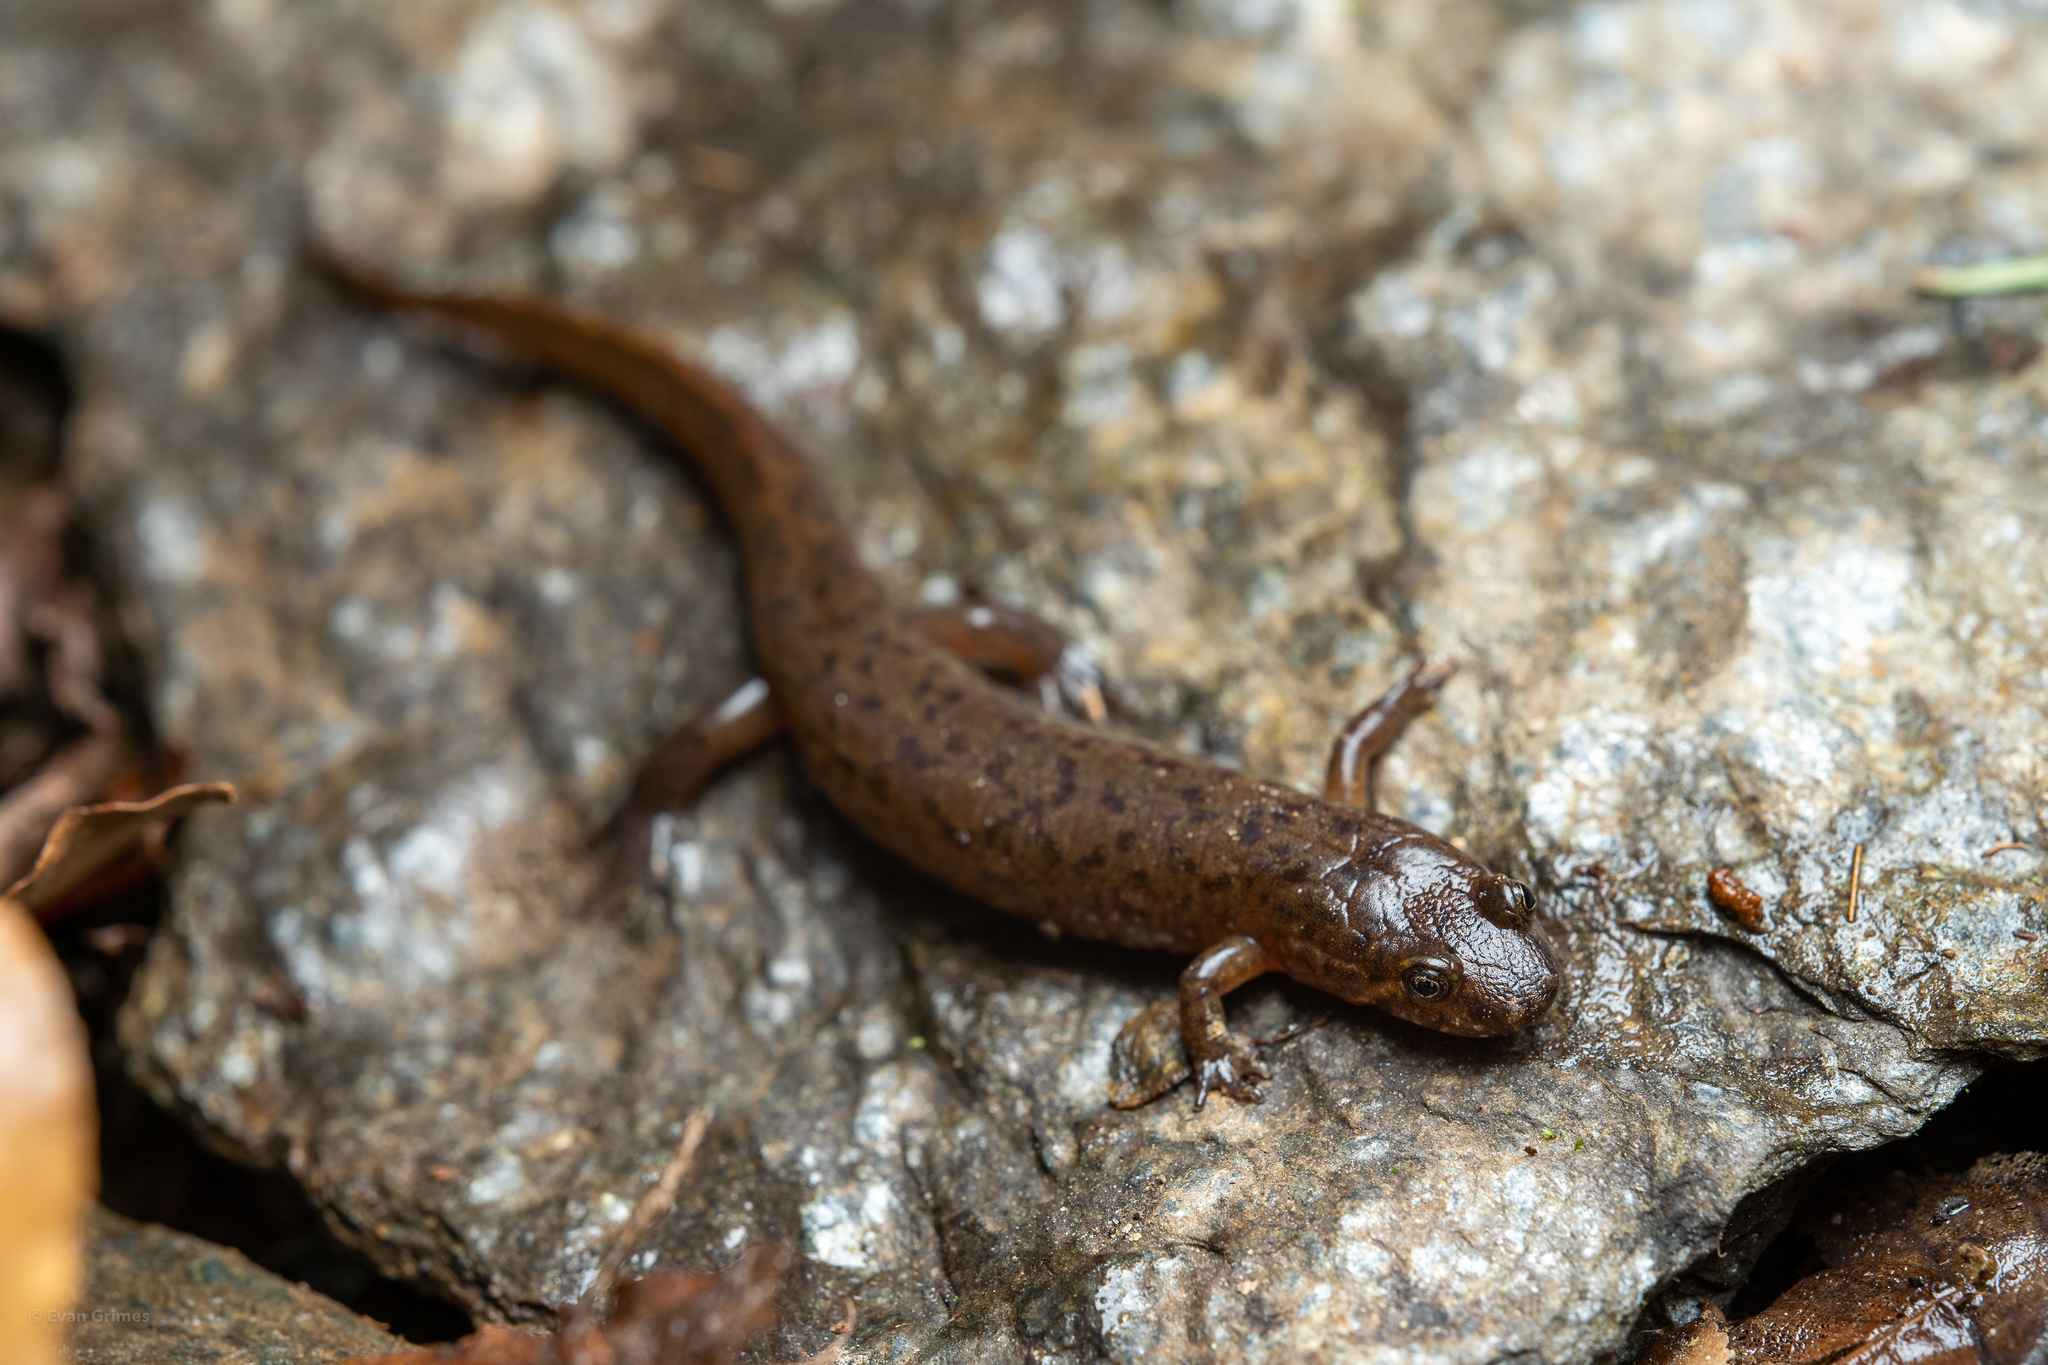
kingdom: Animalia
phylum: Chordata
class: Amphibia
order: Caudata
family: Plethodontidae
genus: Desmognathus
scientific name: Desmognathus monticola
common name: Seal salamander
